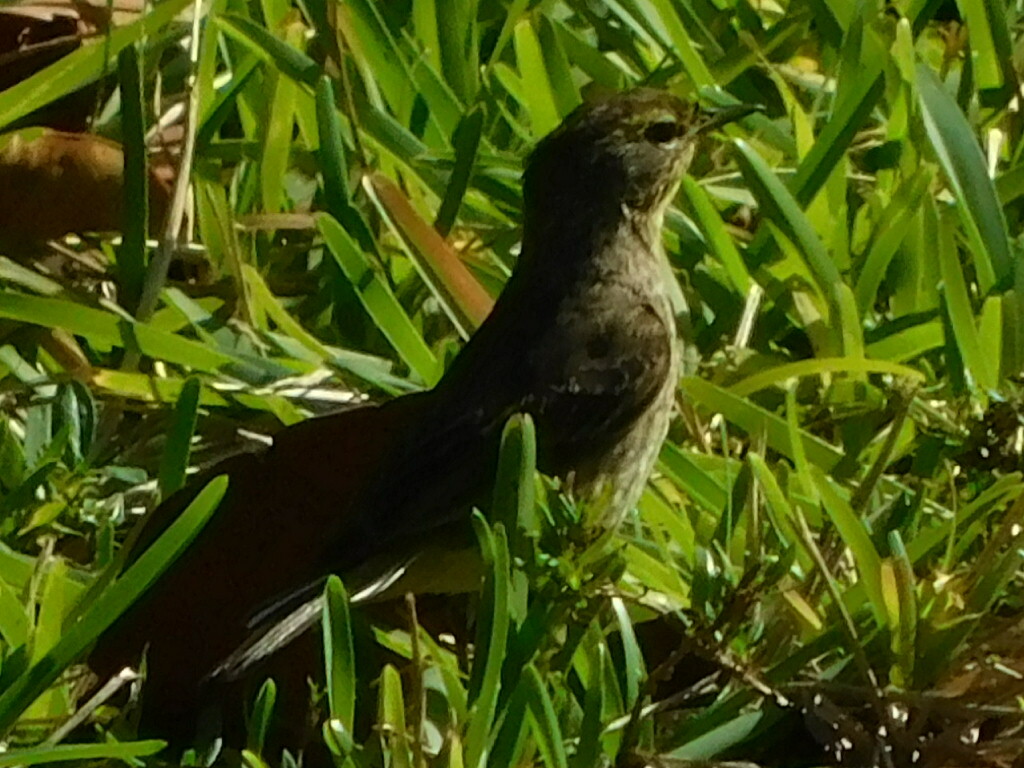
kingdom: Animalia
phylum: Chordata
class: Aves
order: Passeriformes
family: Parulidae
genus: Setophaga
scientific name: Setophaga palmarum
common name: Palm warbler
